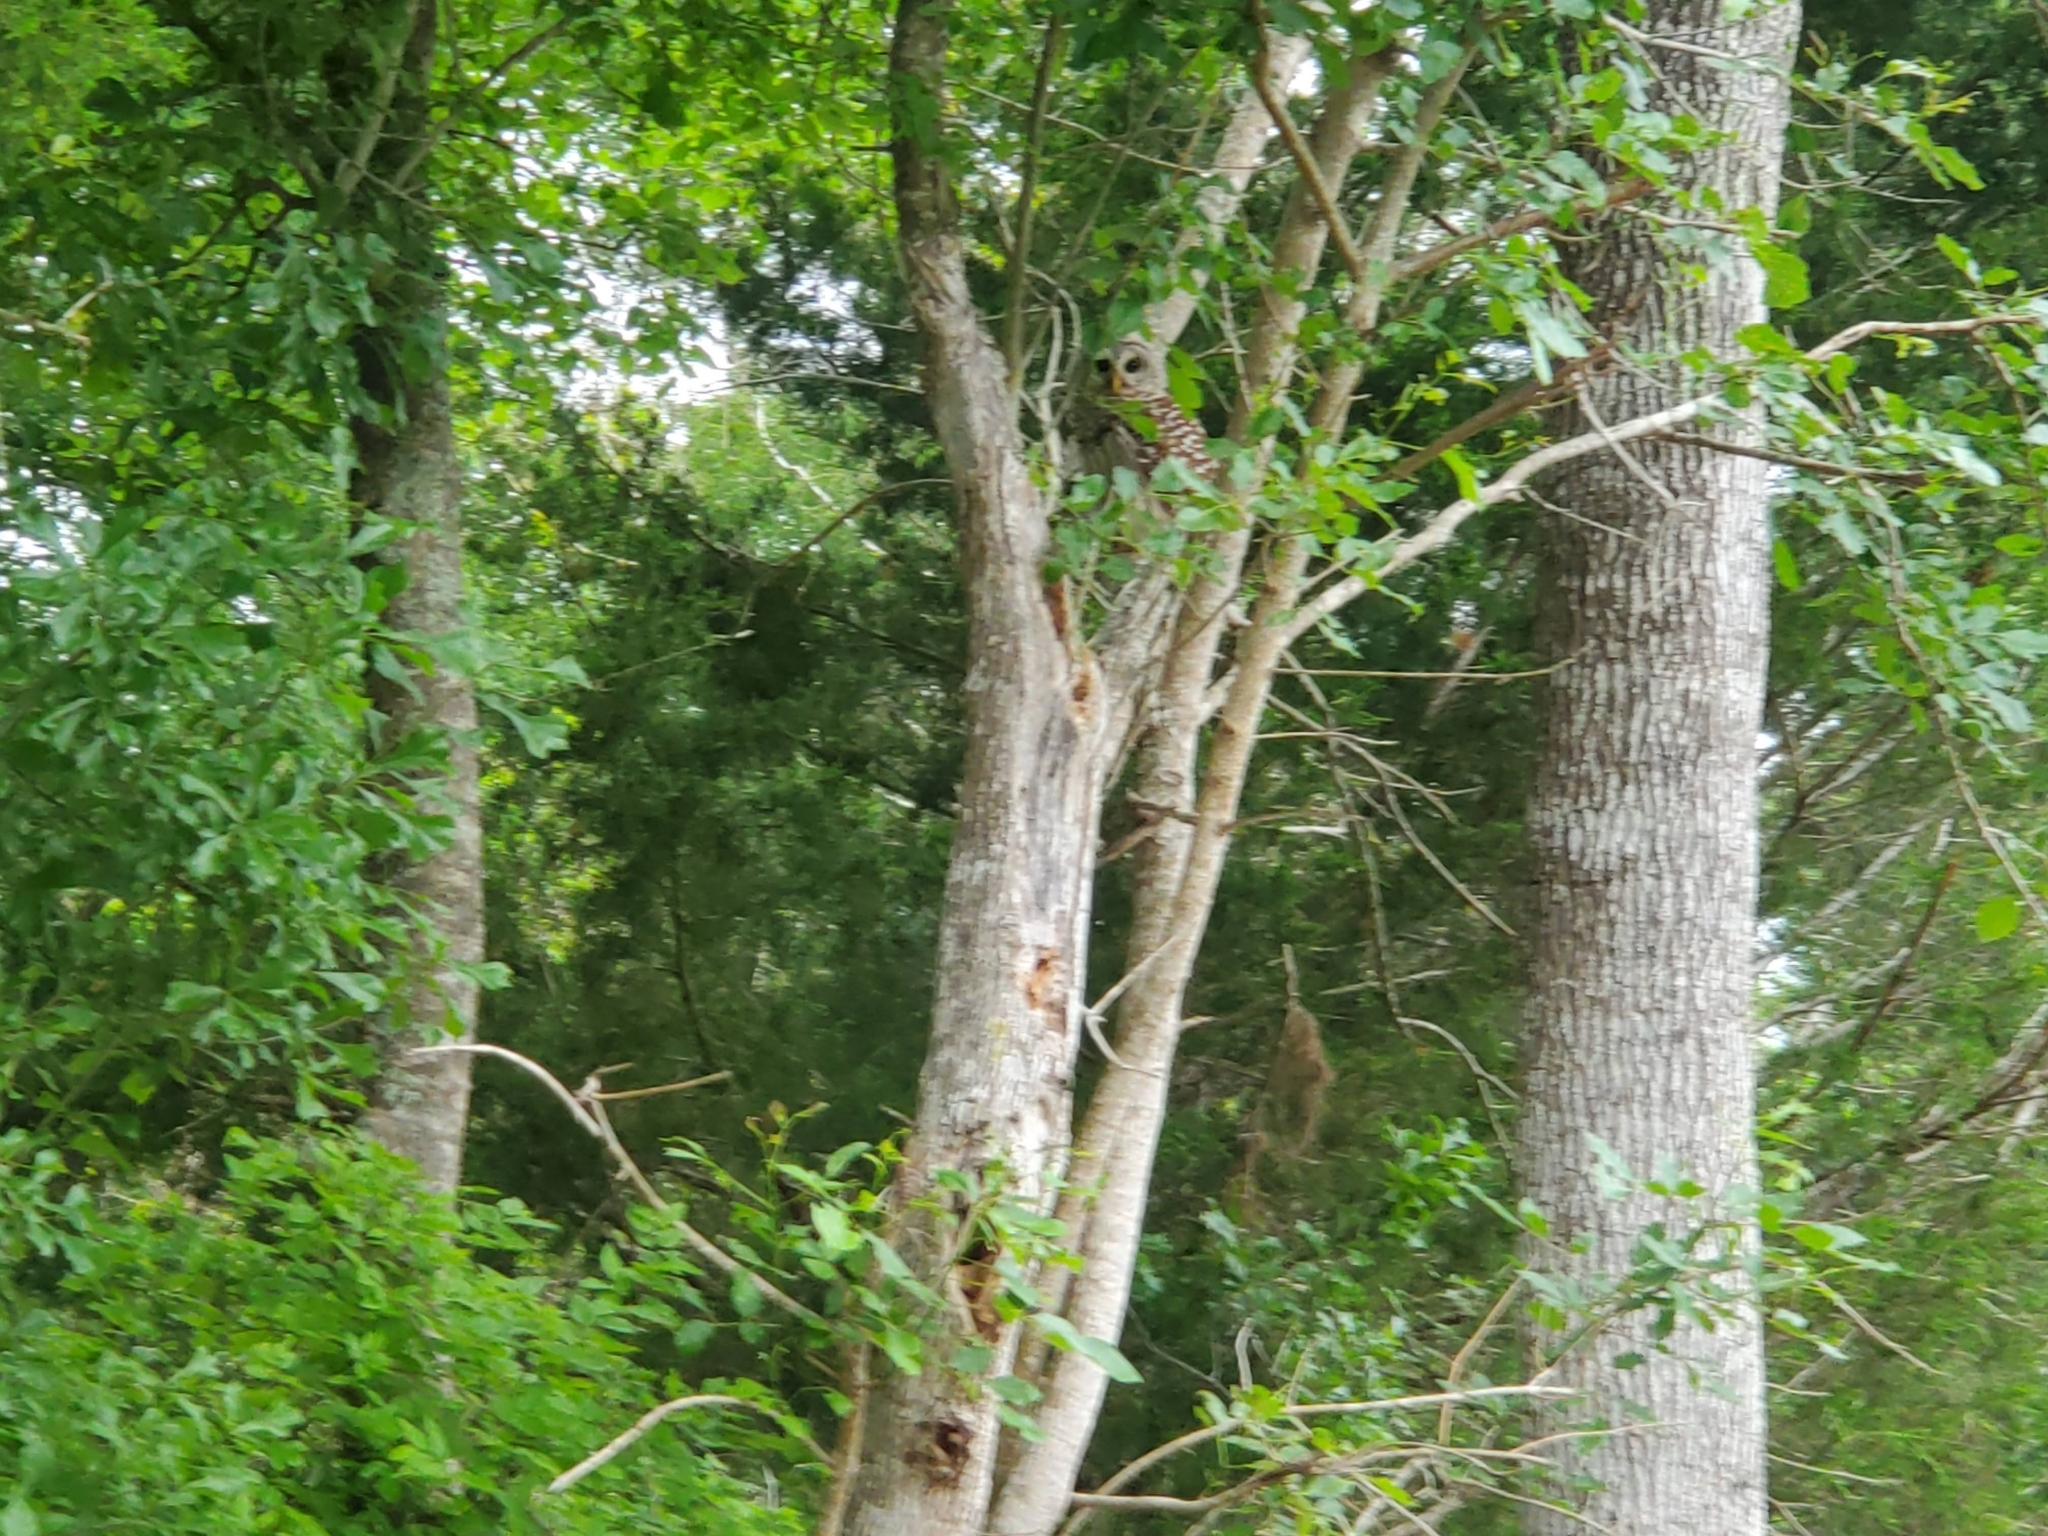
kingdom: Animalia
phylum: Chordata
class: Aves
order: Strigiformes
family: Strigidae
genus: Strix
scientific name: Strix varia
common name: Barred owl
